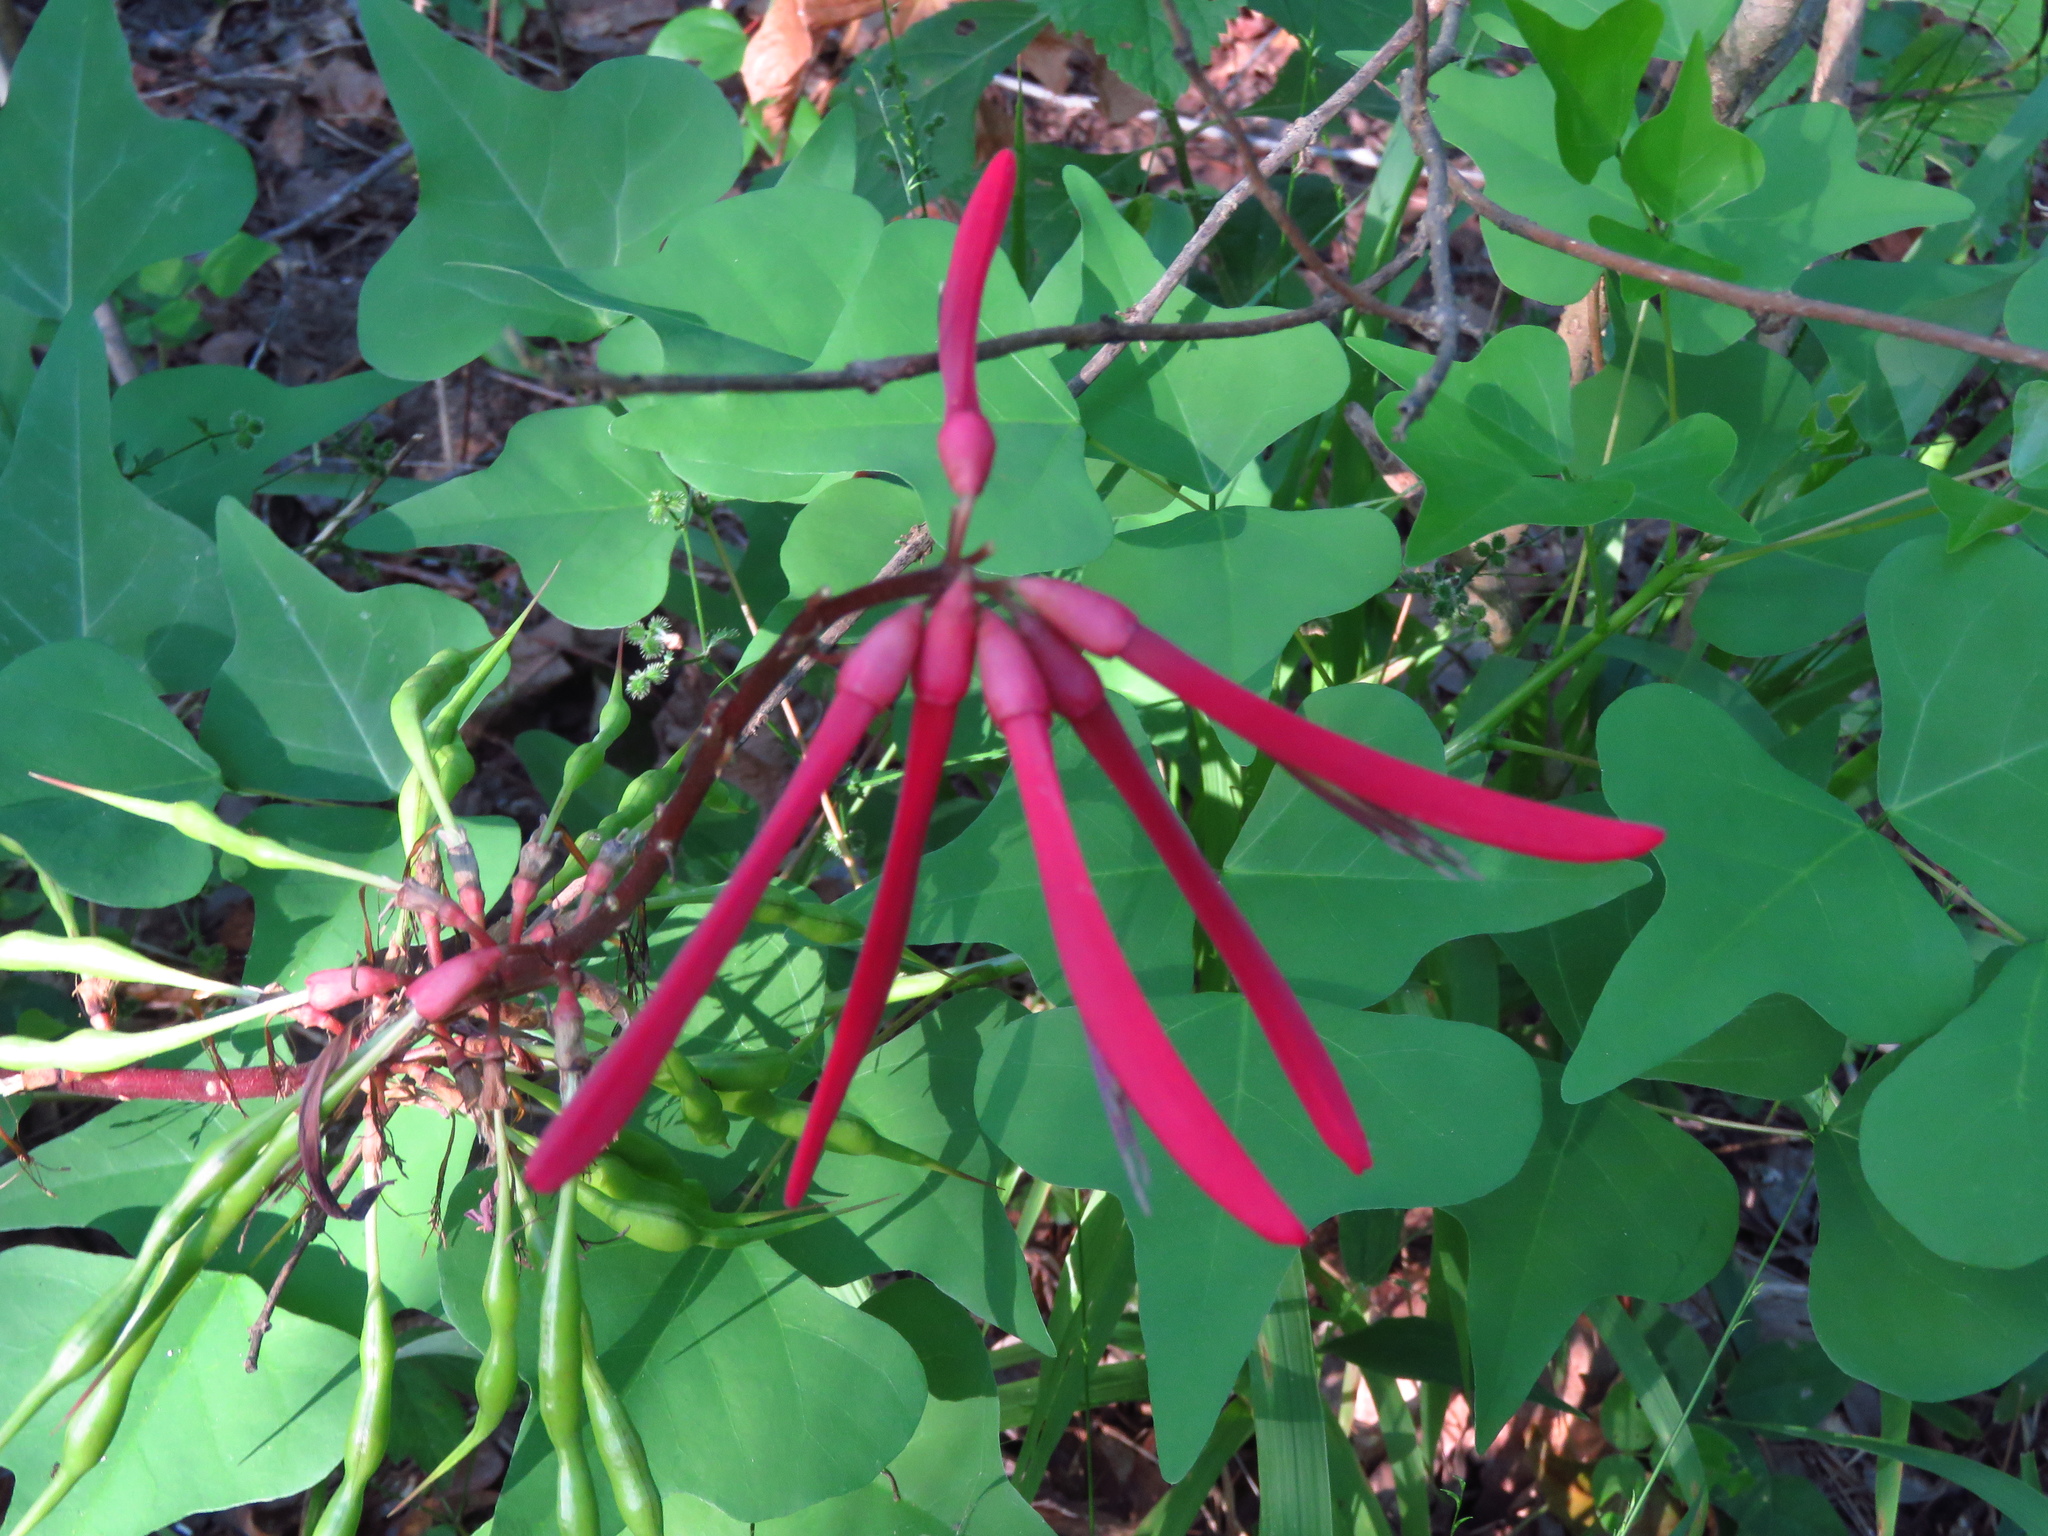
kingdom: Plantae
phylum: Tracheophyta
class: Magnoliopsida
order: Fabales
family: Fabaceae
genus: Erythrina
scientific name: Erythrina herbacea
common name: Coral-bean
